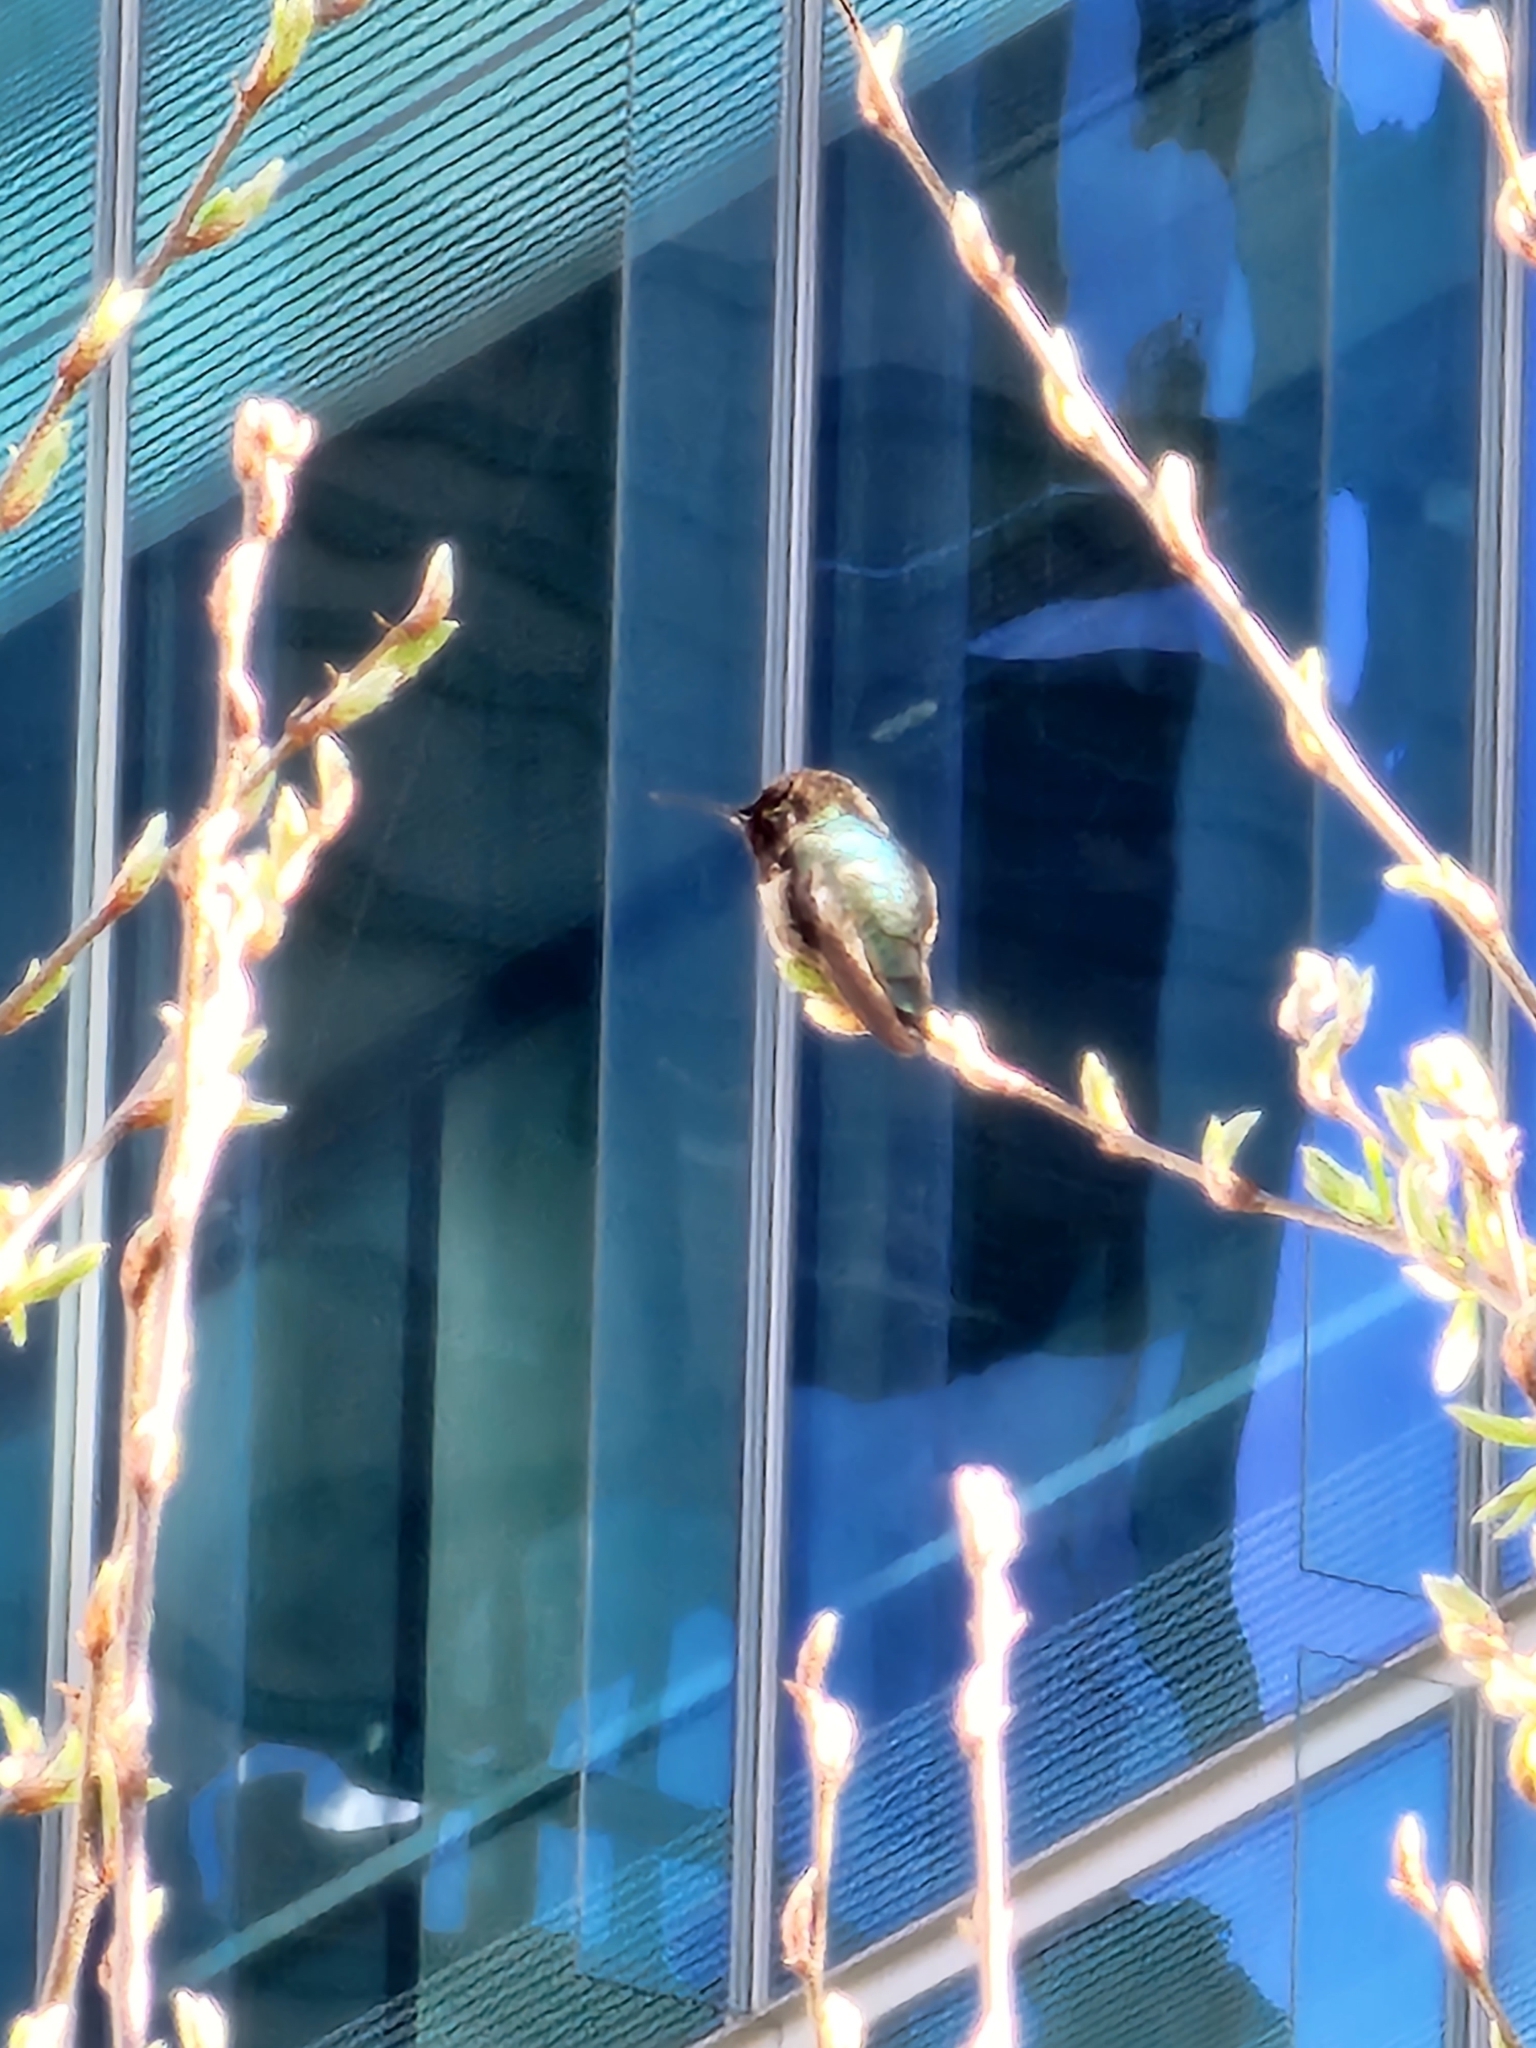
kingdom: Animalia
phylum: Chordata
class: Aves
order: Apodiformes
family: Trochilidae
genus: Calypte
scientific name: Calypte anna
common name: Anna's hummingbird
